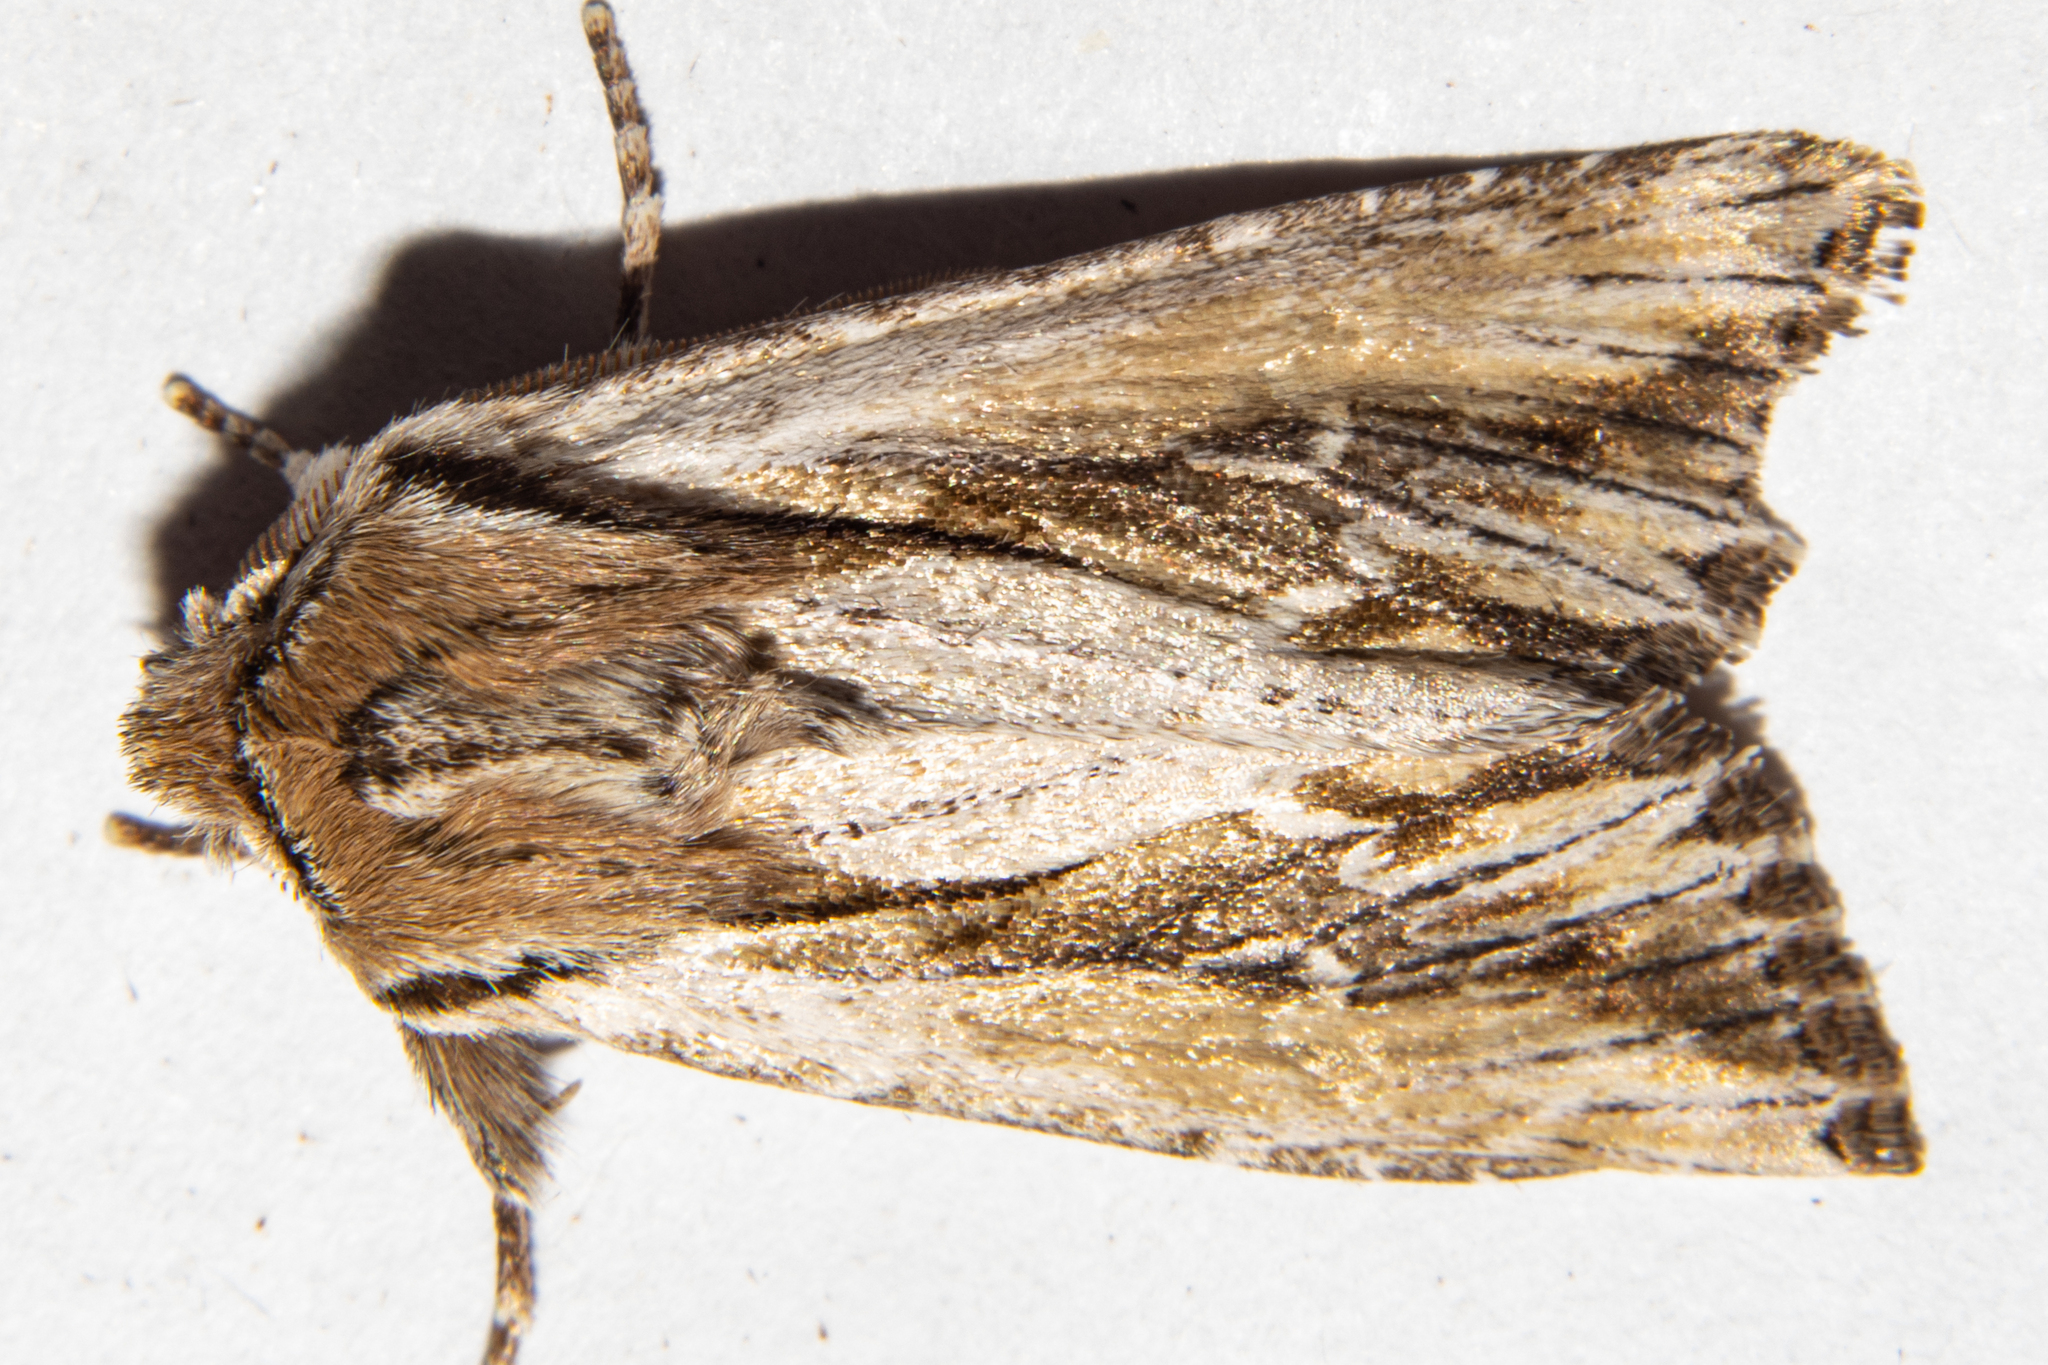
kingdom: Animalia
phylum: Arthropoda
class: Insecta
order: Lepidoptera
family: Noctuidae
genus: Ichneutica
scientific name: Ichneutica
